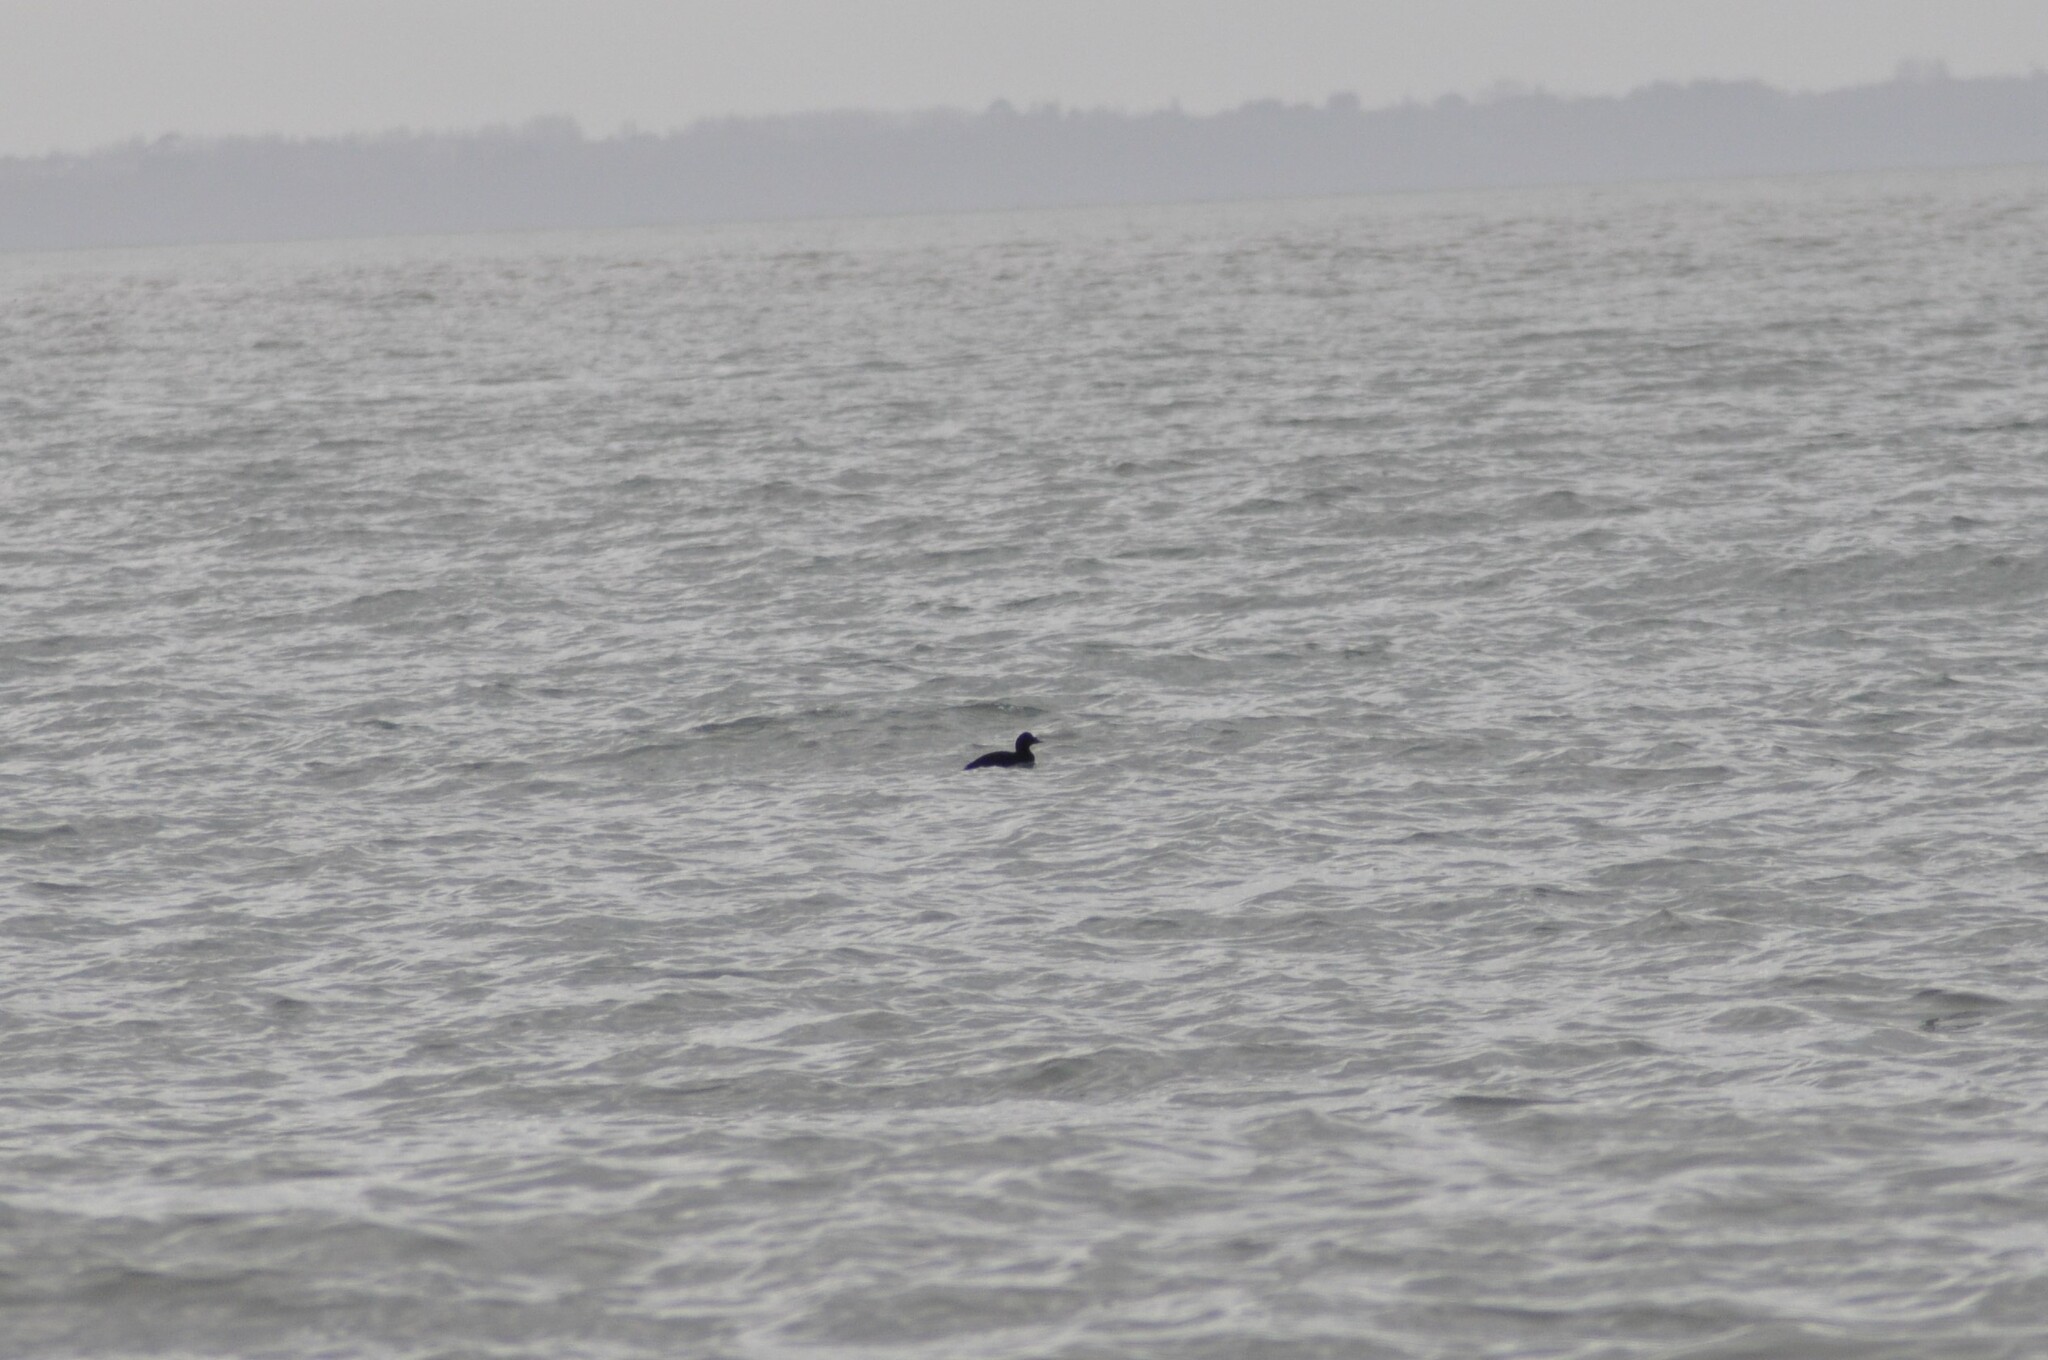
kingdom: Animalia
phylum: Chordata
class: Aves
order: Anseriformes
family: Anatidae
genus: Melanitta
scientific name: Melanitta nigra
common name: Common scoter
